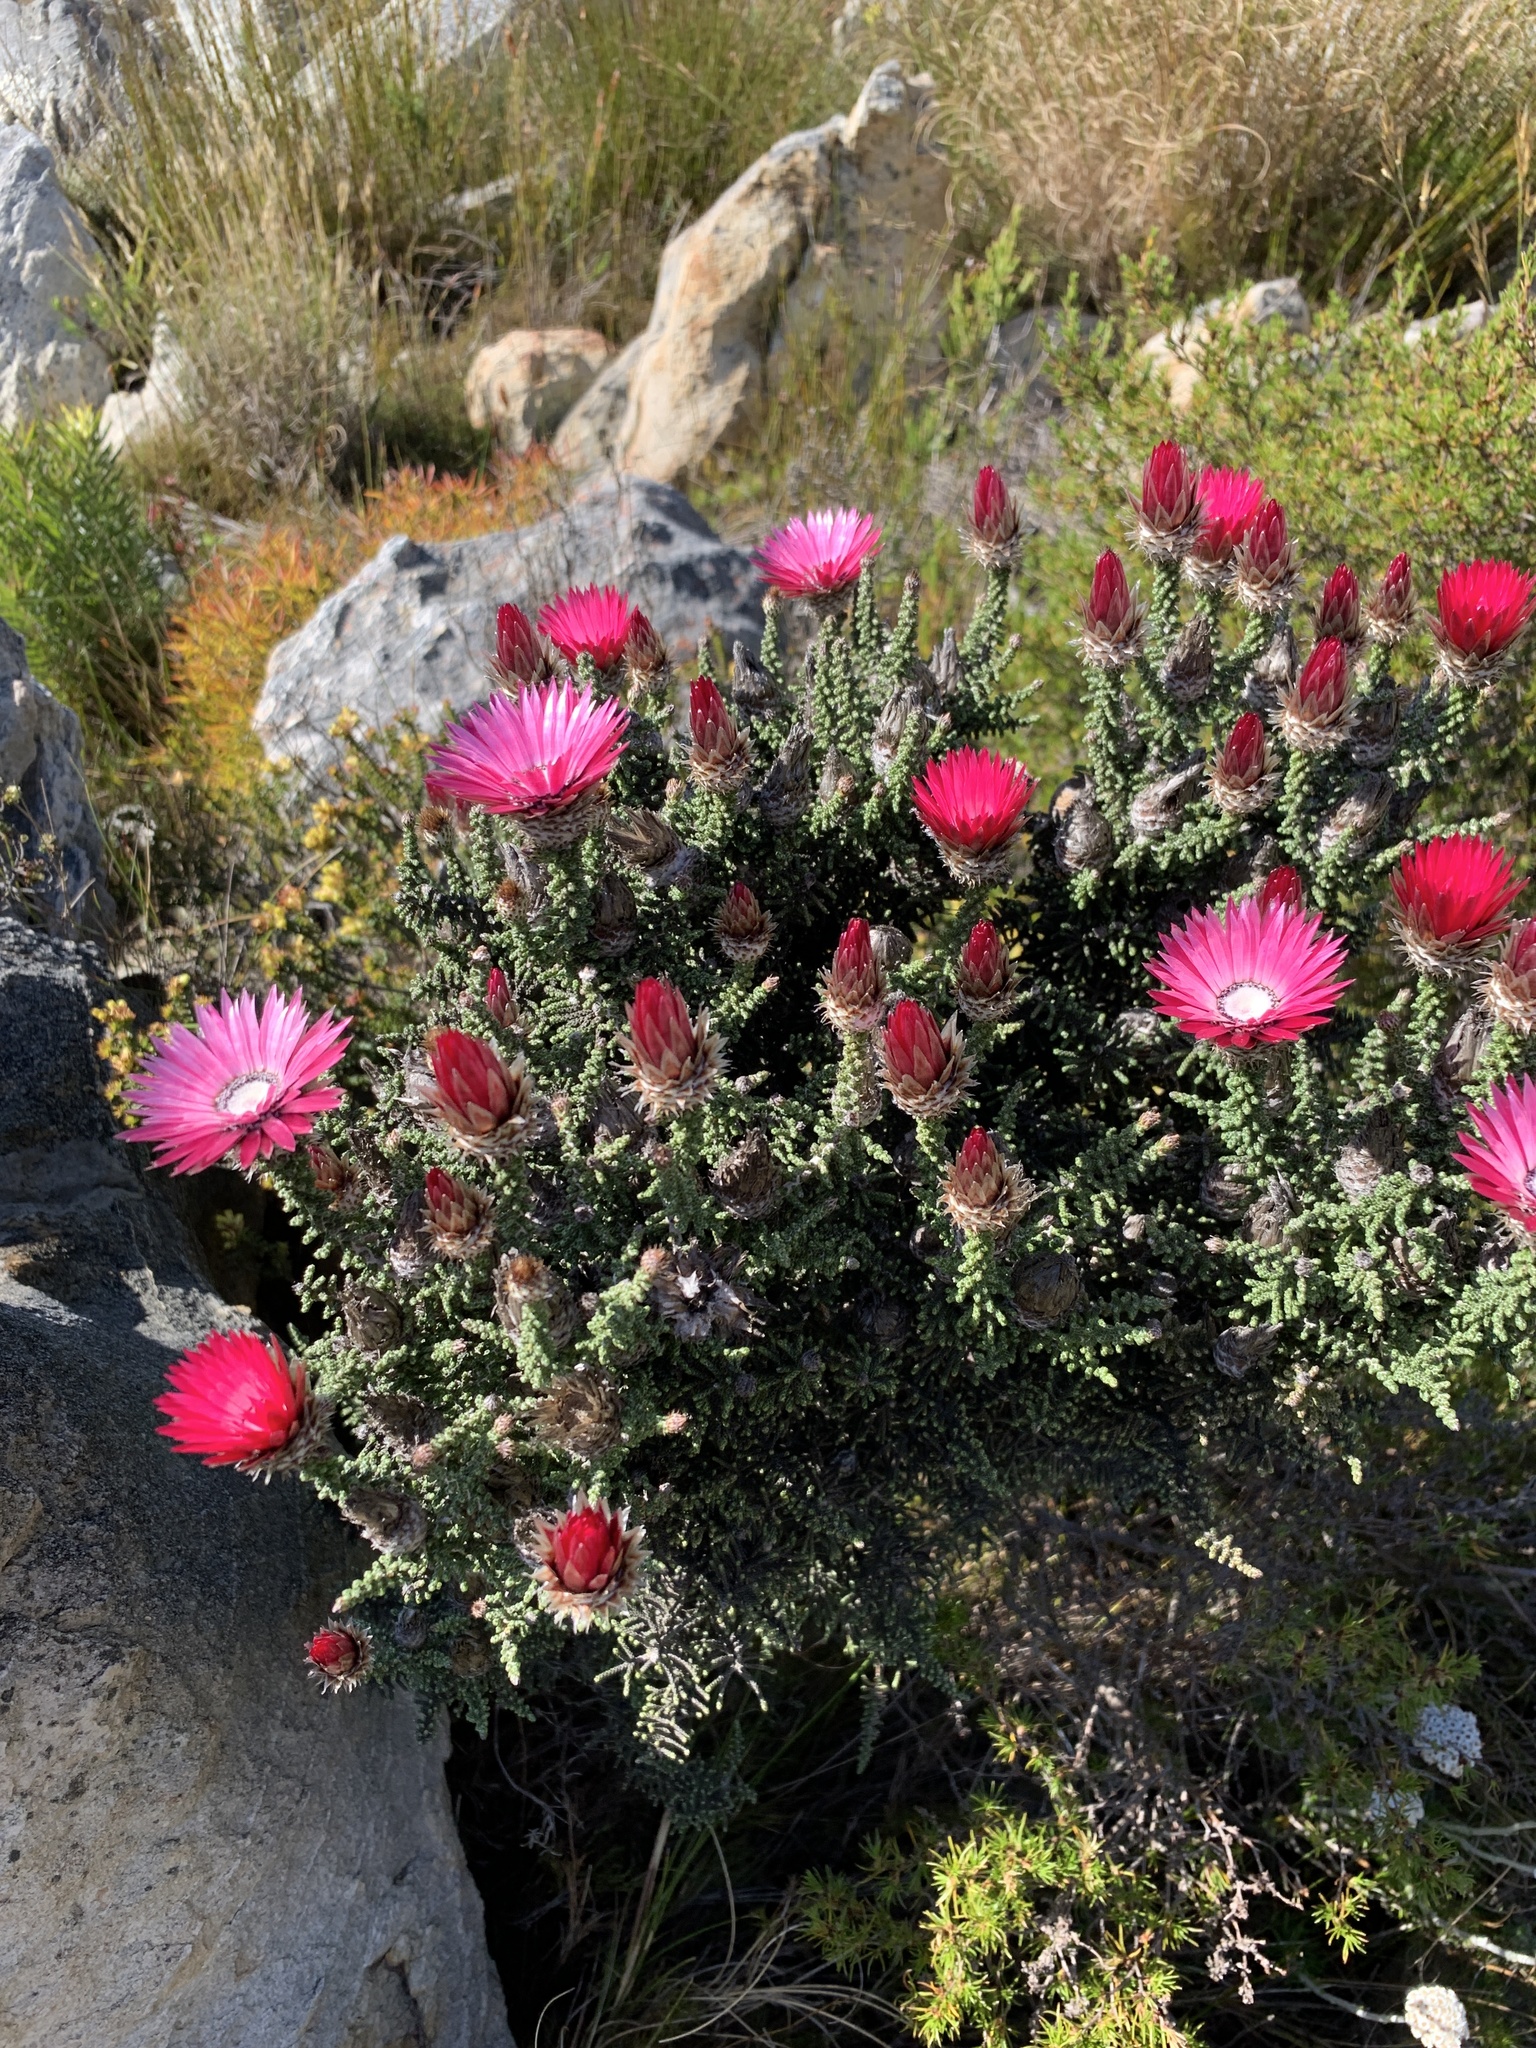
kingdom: Plantae
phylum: Tracheophyta
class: Magnoliopsida
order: Asterales
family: Asteraceae
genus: Phaenocoma
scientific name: Phaenocoma prolifera
